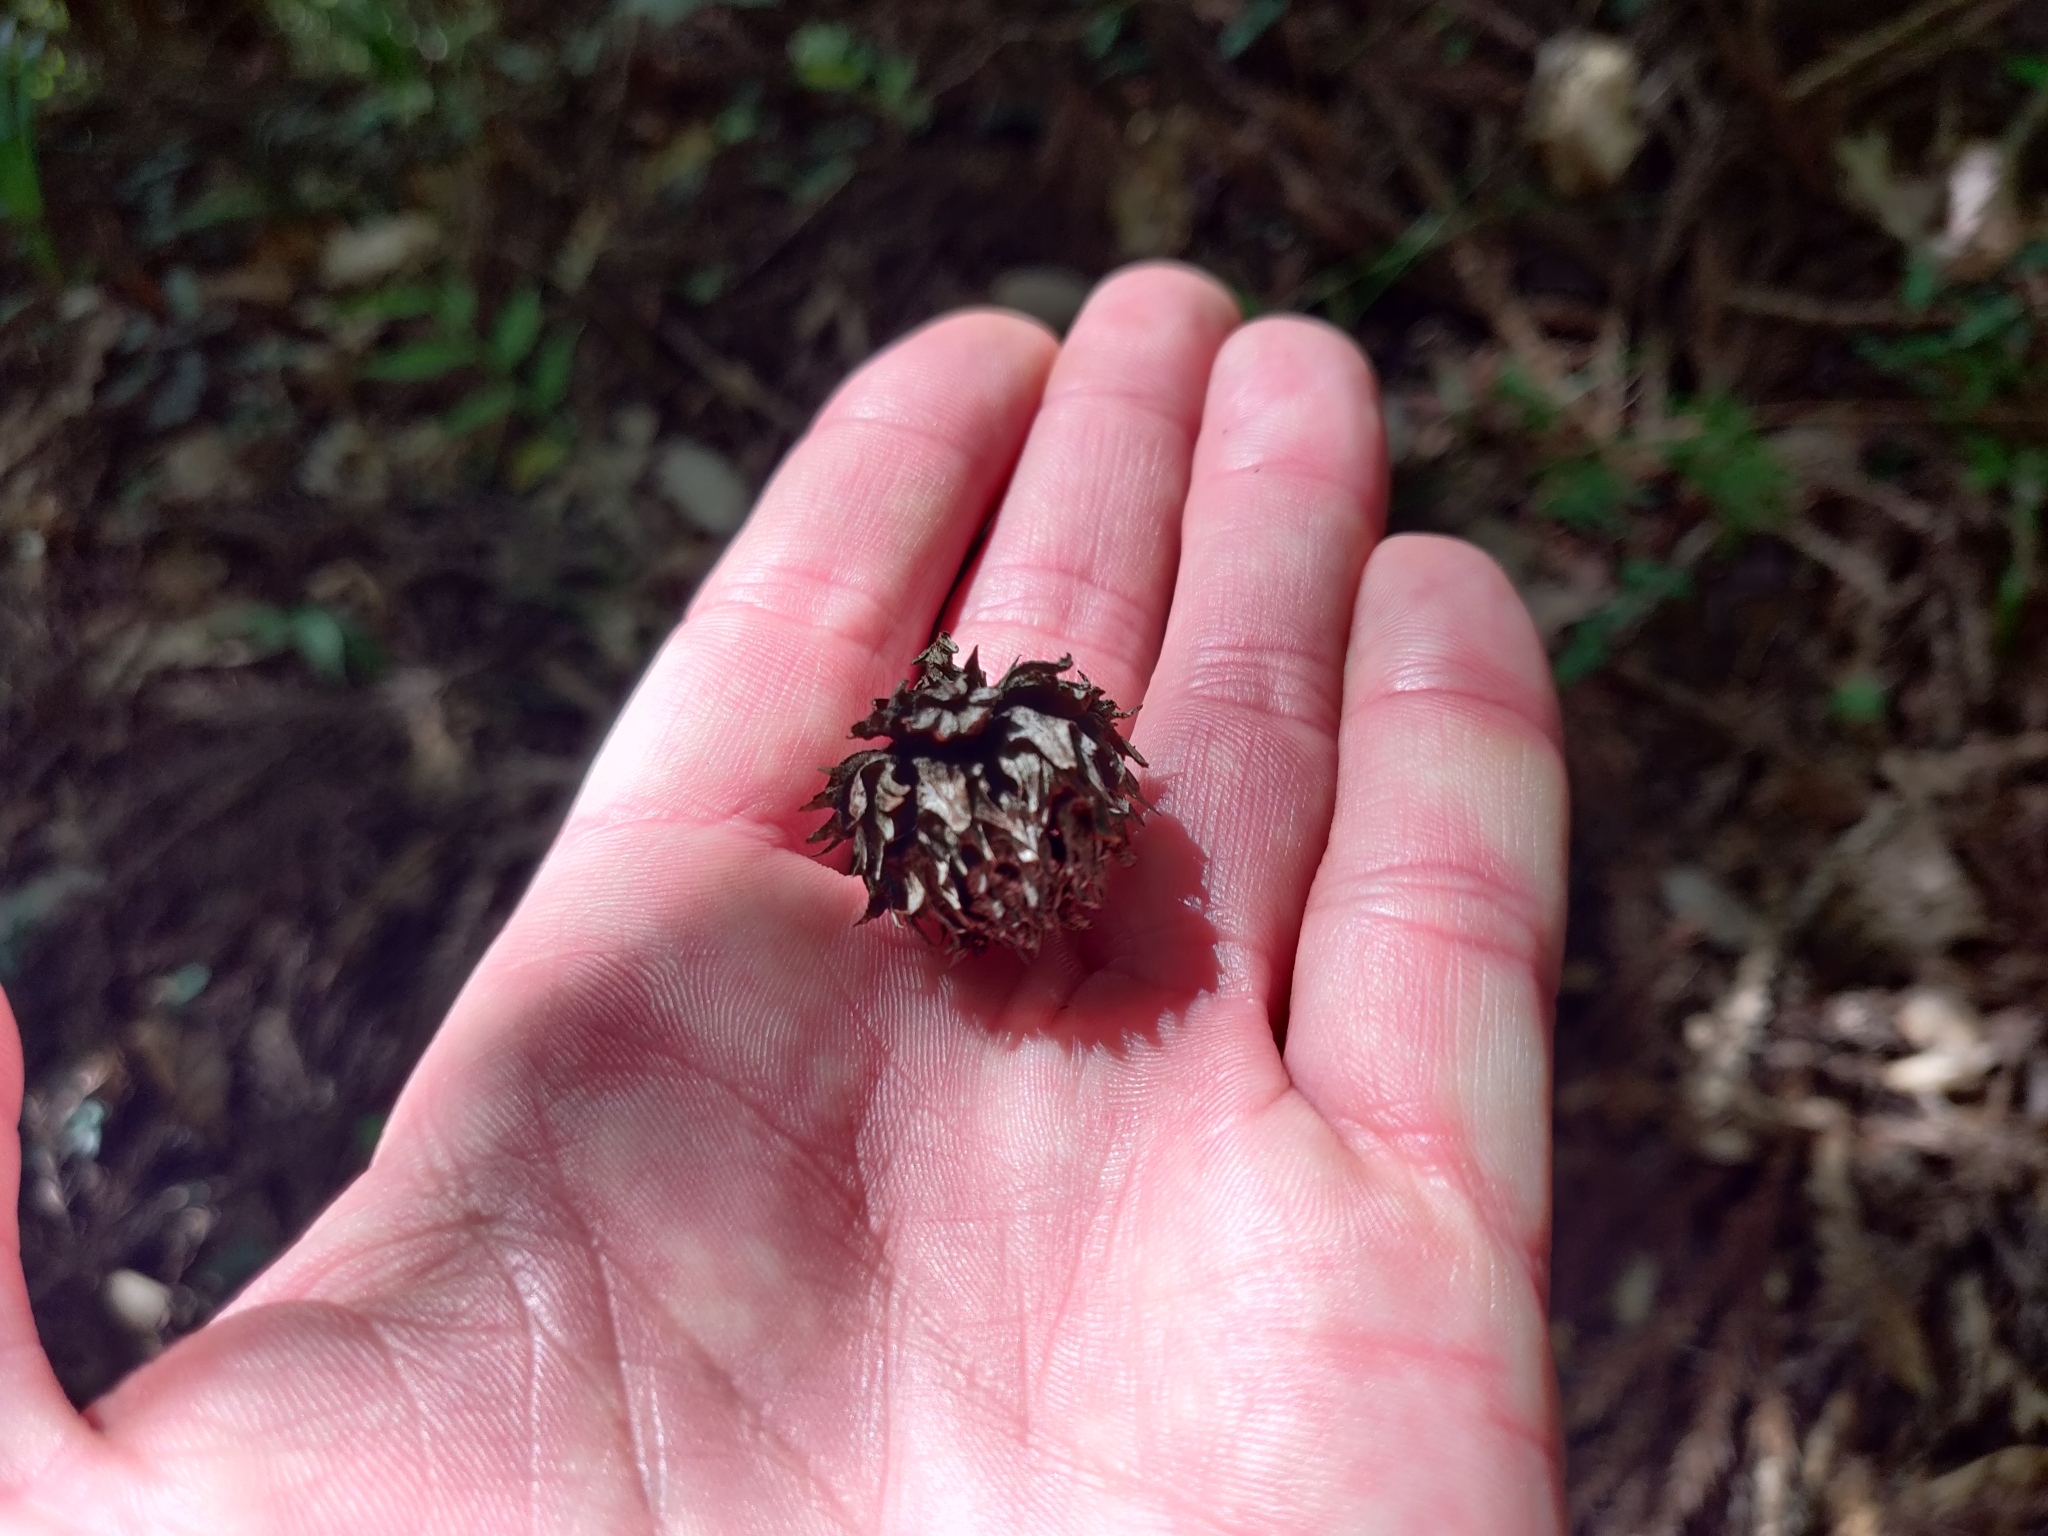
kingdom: Plantae
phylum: Tracheophyta
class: Pinopsida
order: Pinales
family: Cupressaceae
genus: Cryptomeria
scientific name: Cryptomeria japonica
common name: Japanese cedar
